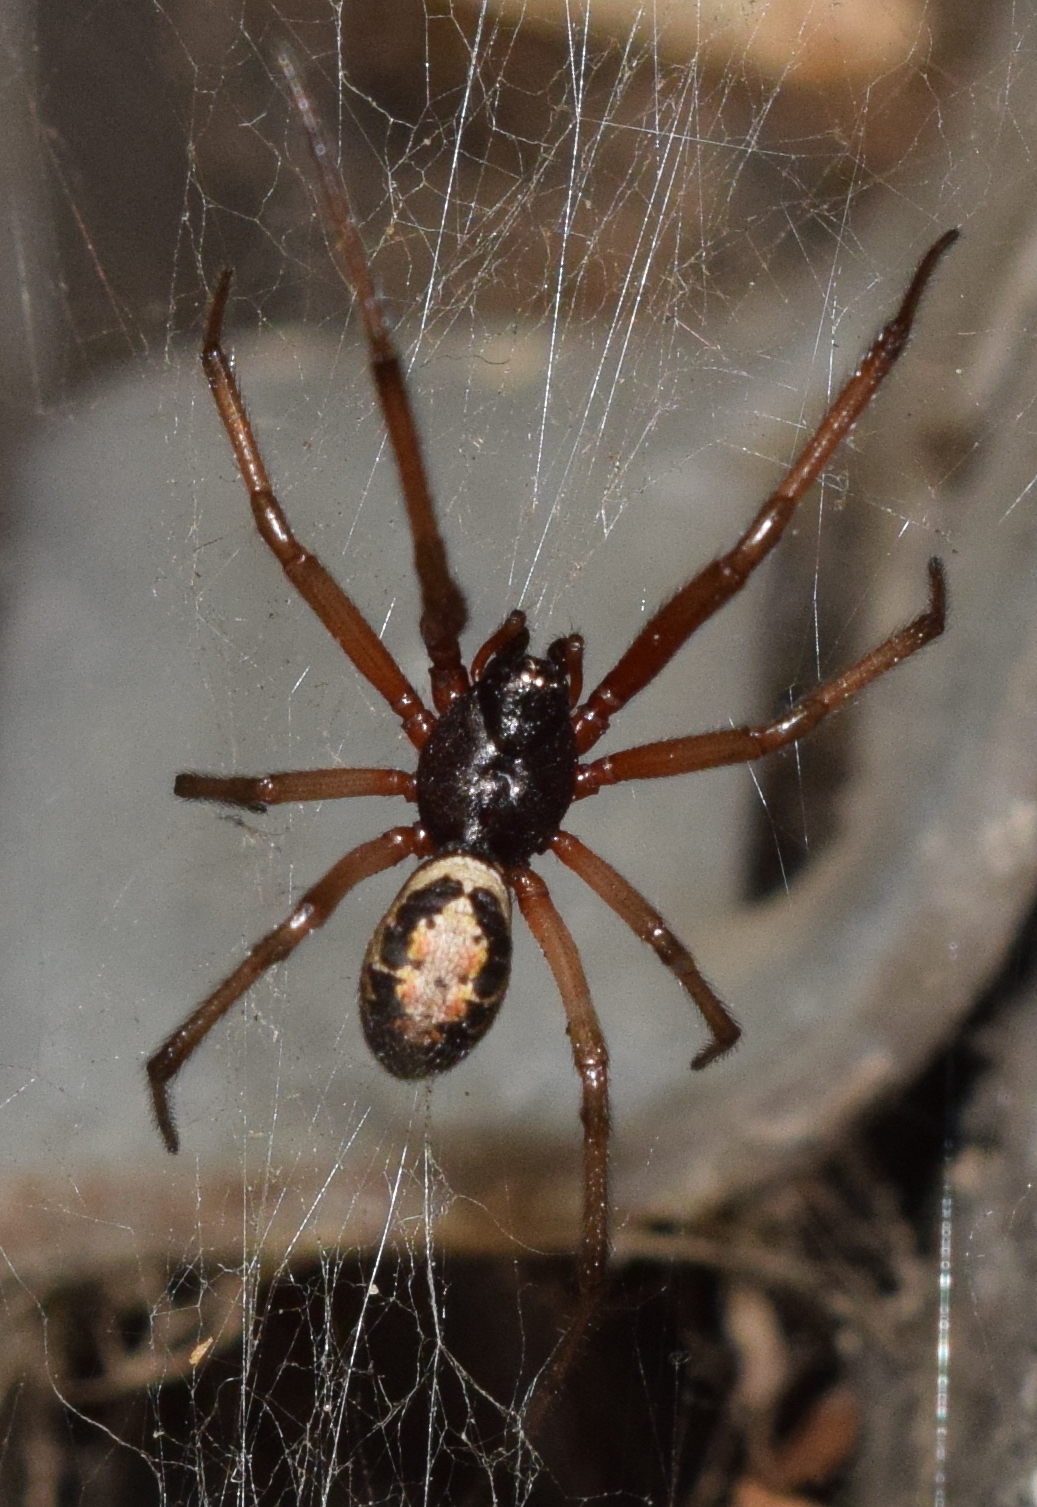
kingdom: Animalia
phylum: Arthropoda
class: Arachnida
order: Araneae
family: Theridiidae
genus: Steatoda
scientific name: Steatoda nobilis
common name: Cobweb weaver
